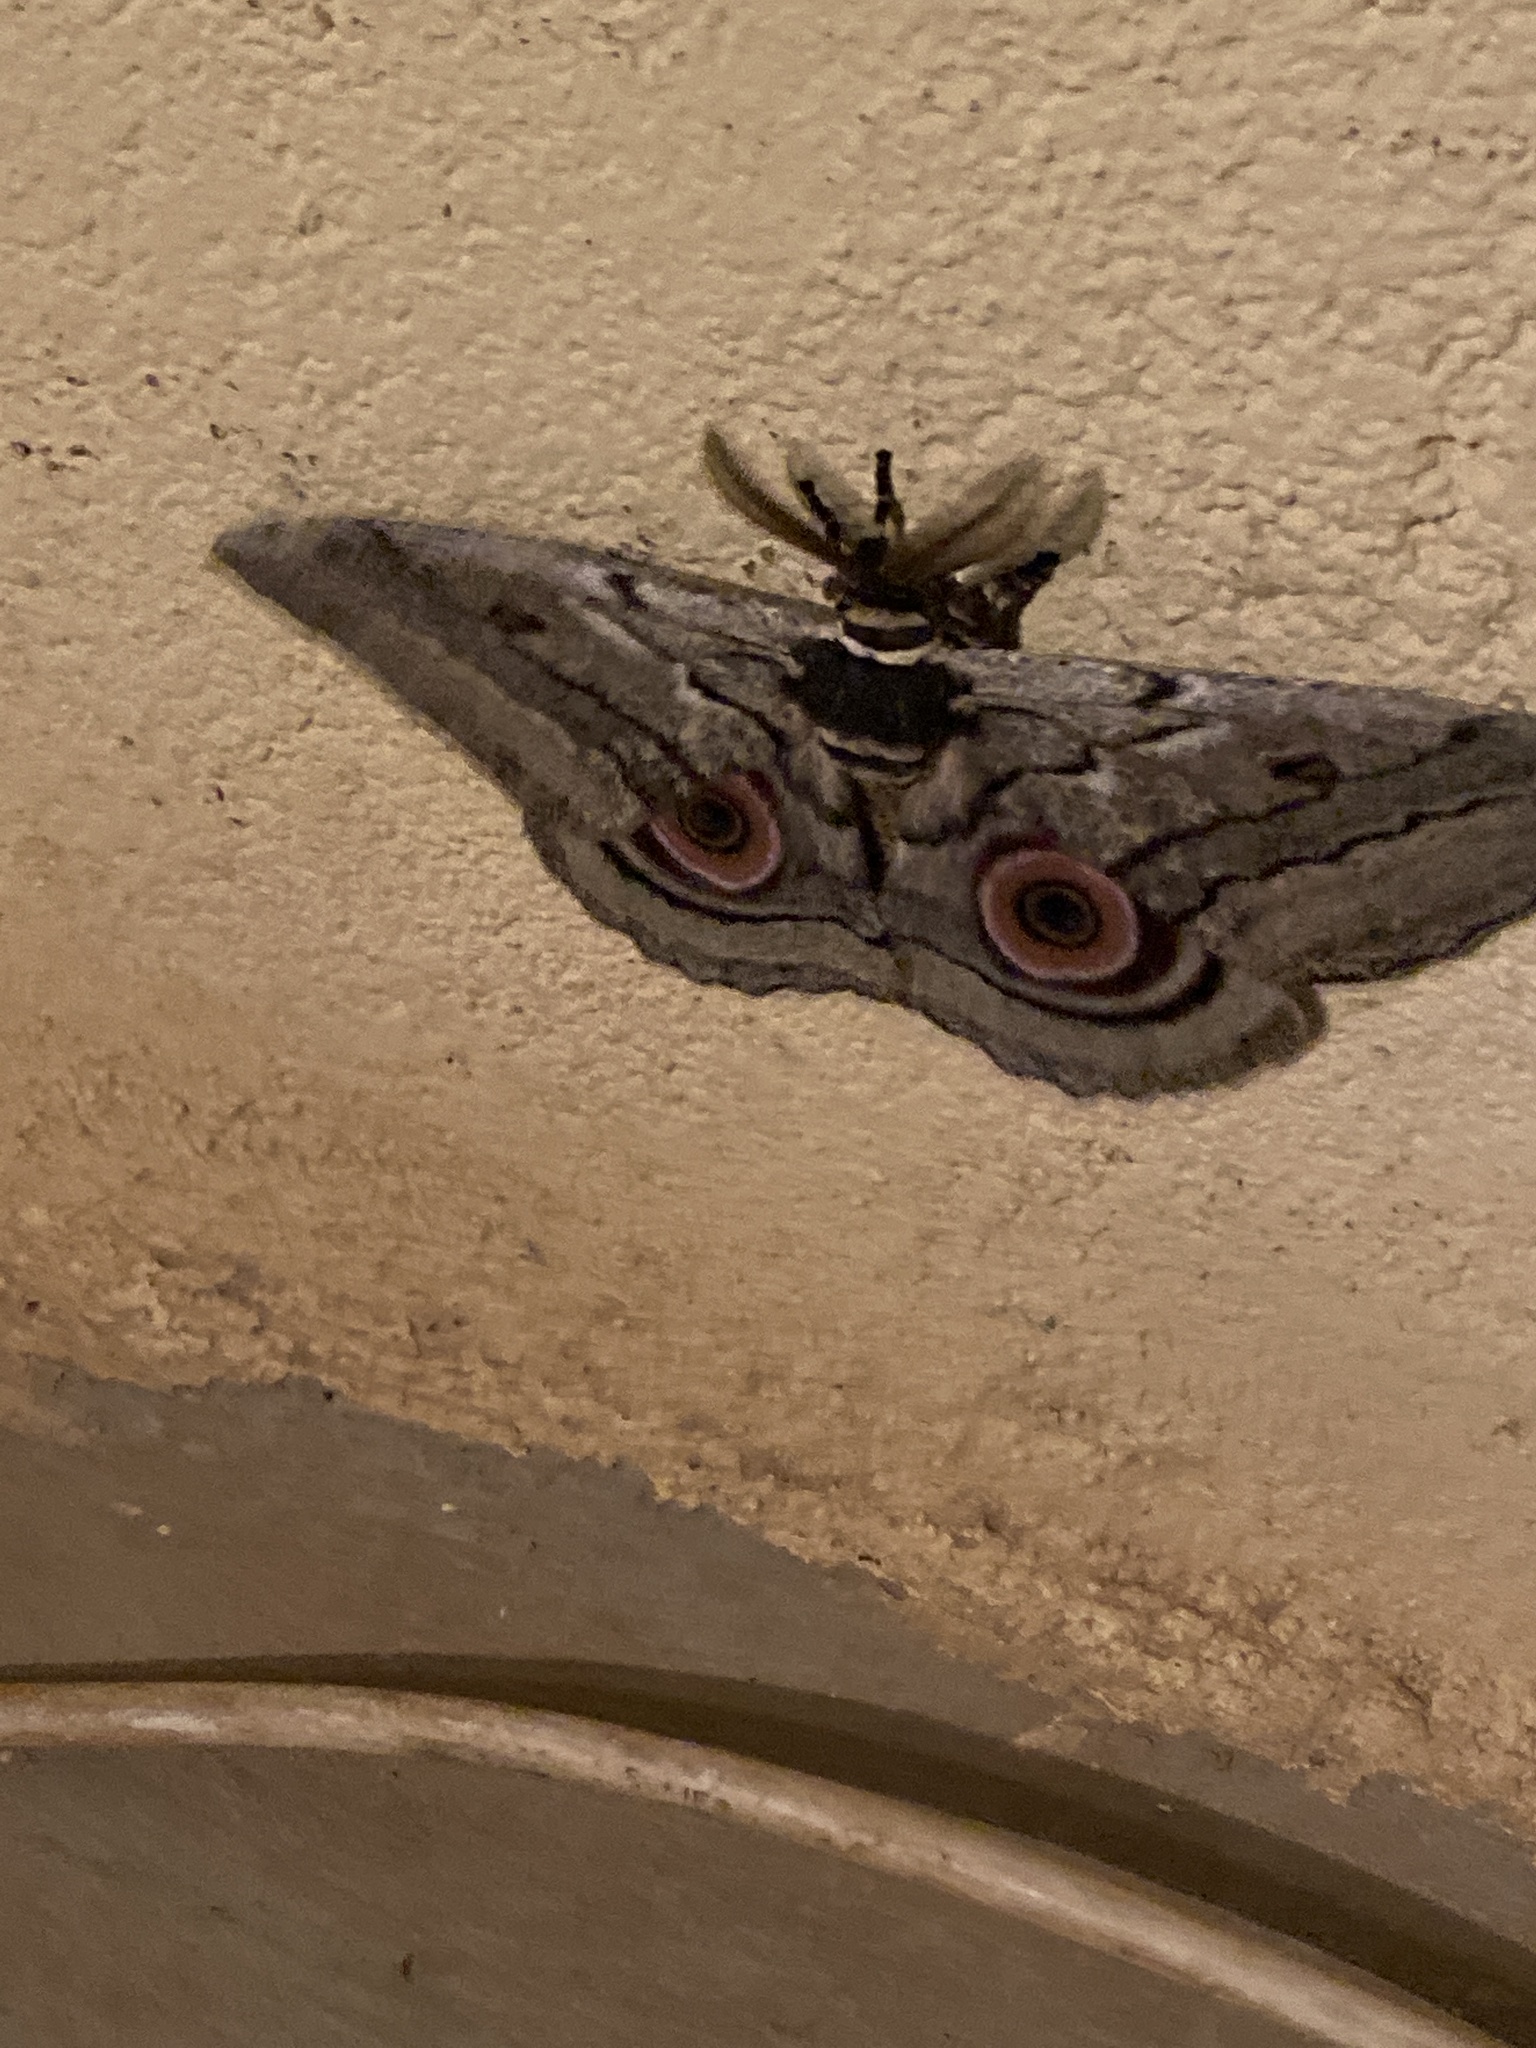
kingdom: Animalia
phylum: Arthropoda
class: Insecta
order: Lepidoptera
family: Saturniidae
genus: Gynanisa
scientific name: Gynanisa maja
